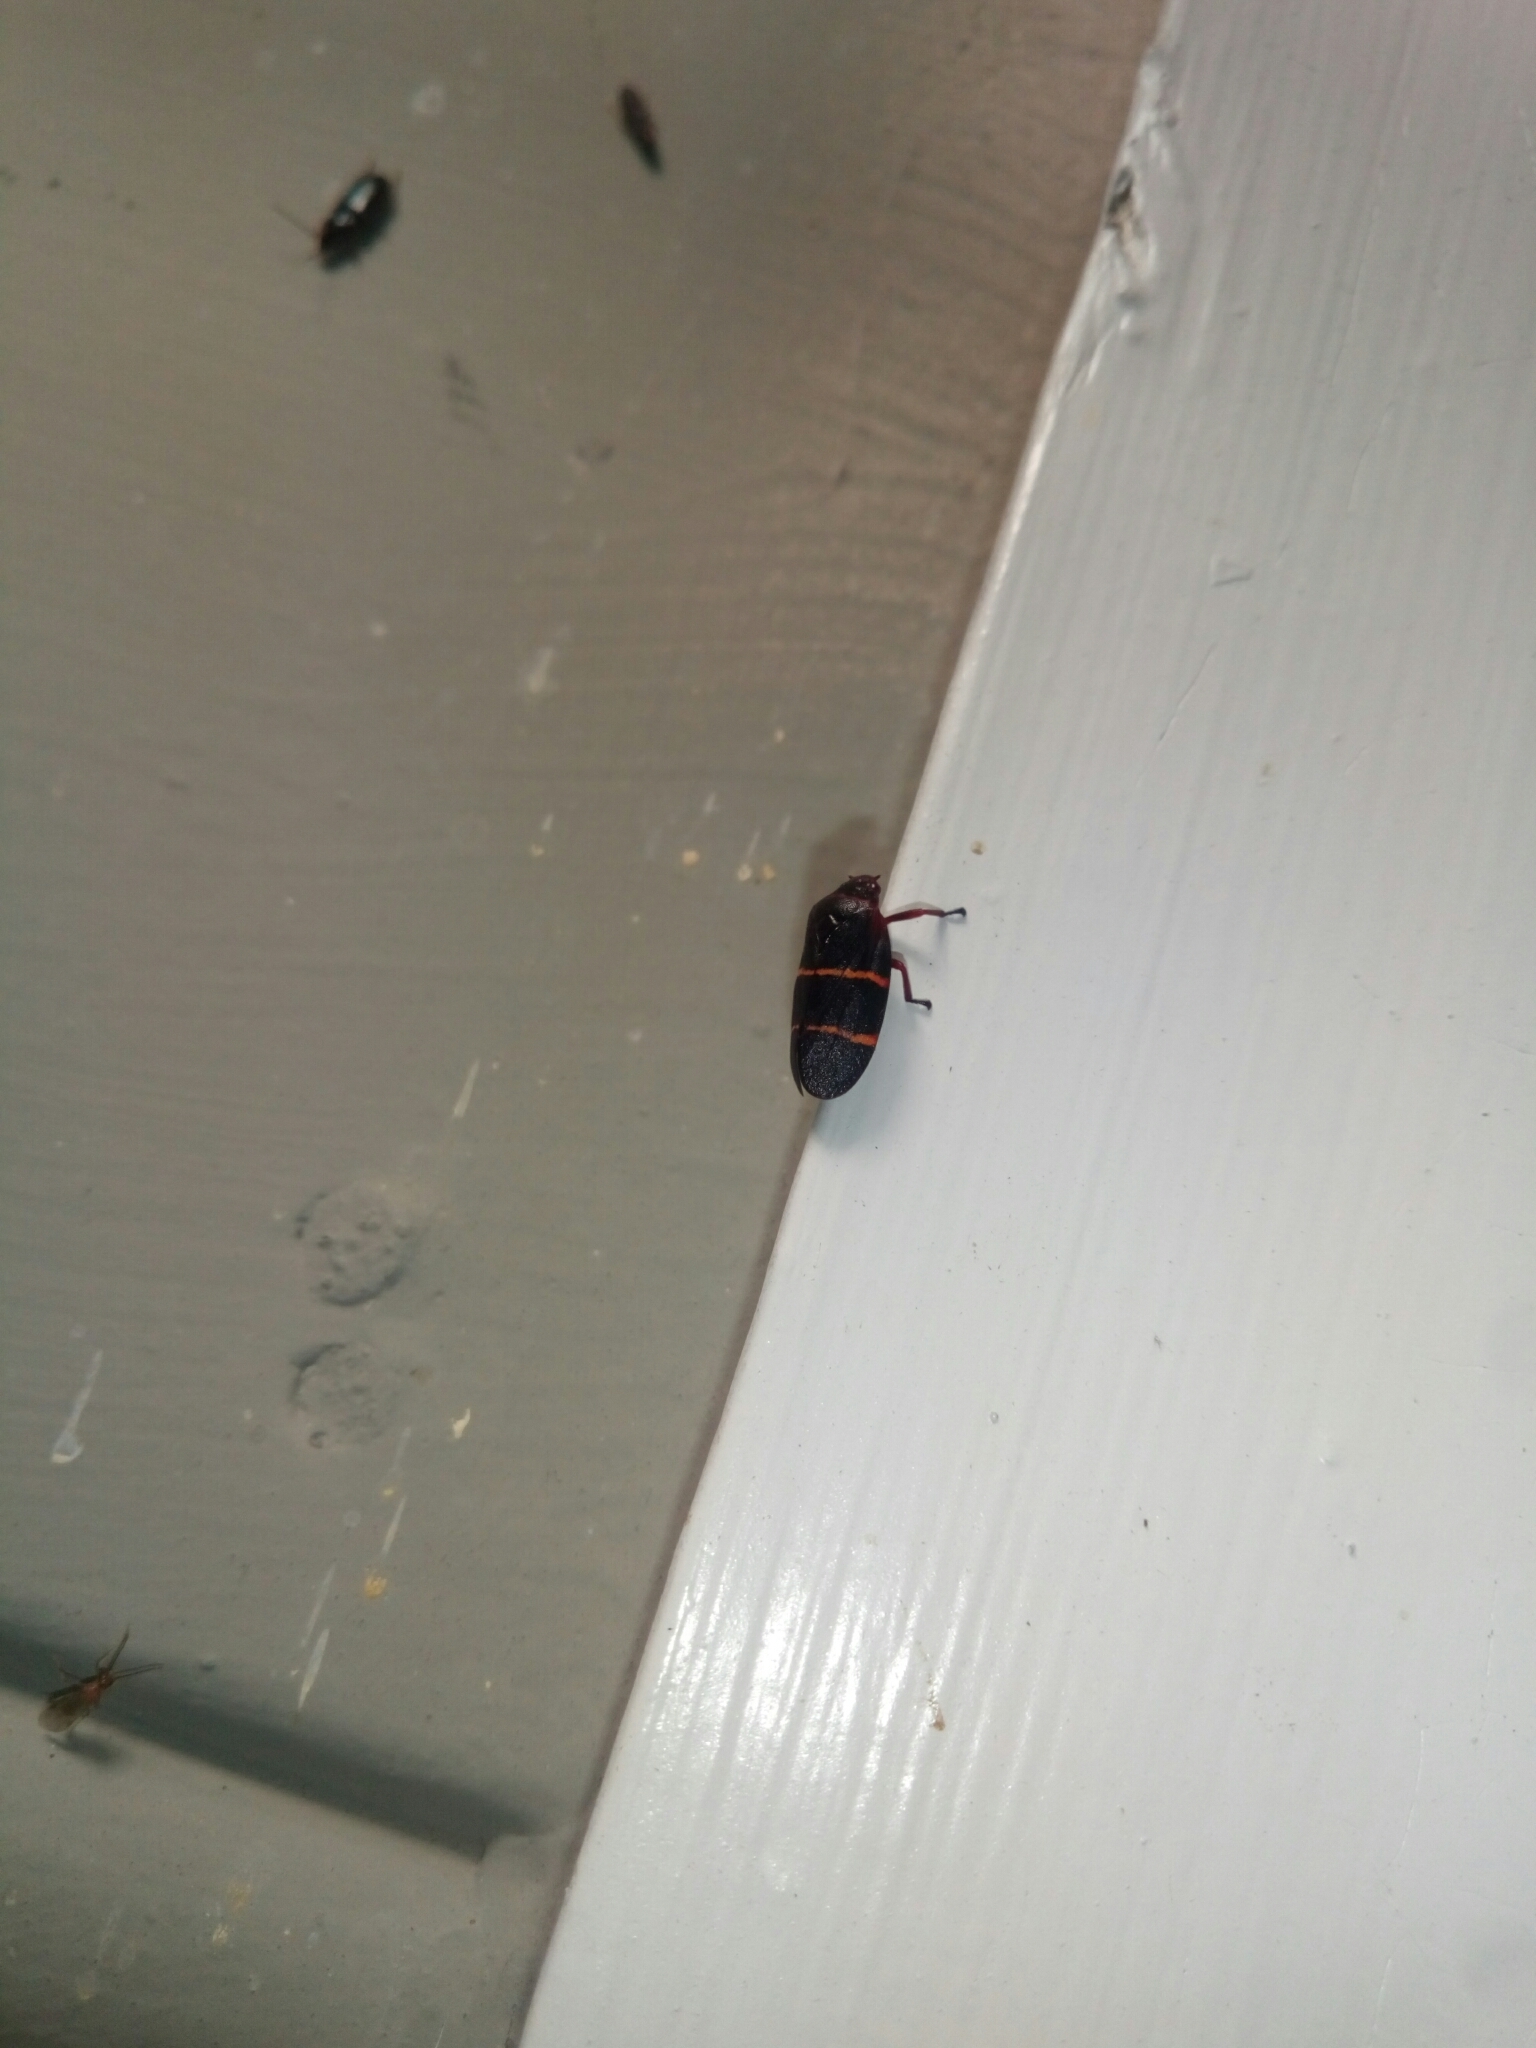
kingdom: Animalia
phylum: Arthropoda
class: Insecta
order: Hemiptera
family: Cercopidae
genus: Prosapia
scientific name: Prosapia bicincta
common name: Twolined spittlebug
